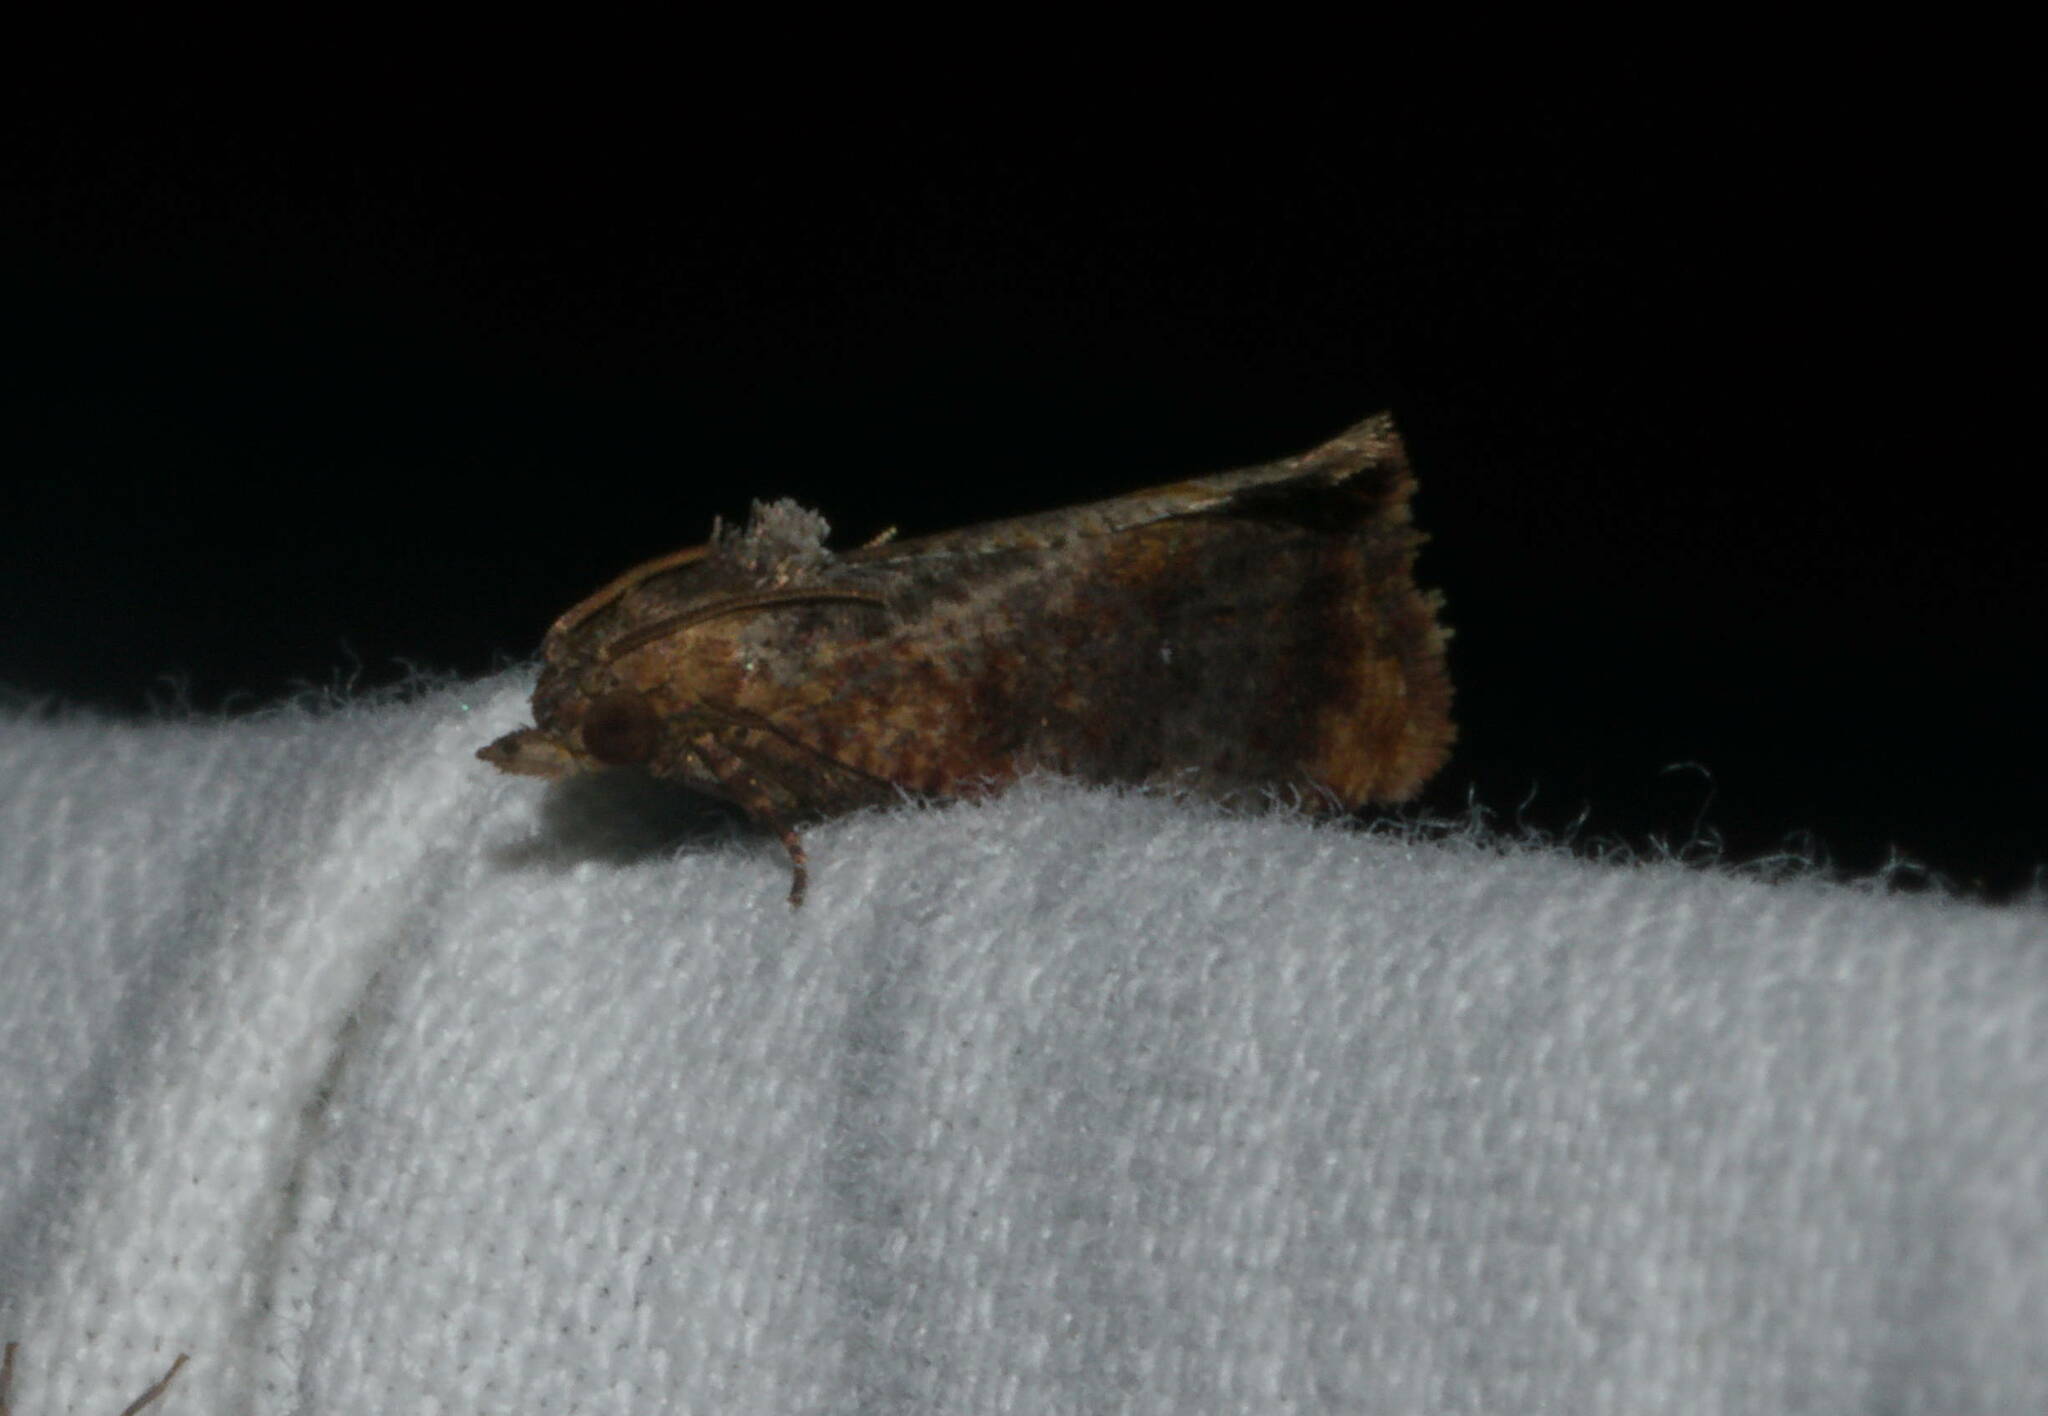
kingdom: Animalia
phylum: Arthropoda
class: Insecta
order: Lepidoptera
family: Tortricidae
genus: Cryptophlebia
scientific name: Cryptophlebia illepida
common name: Moth
